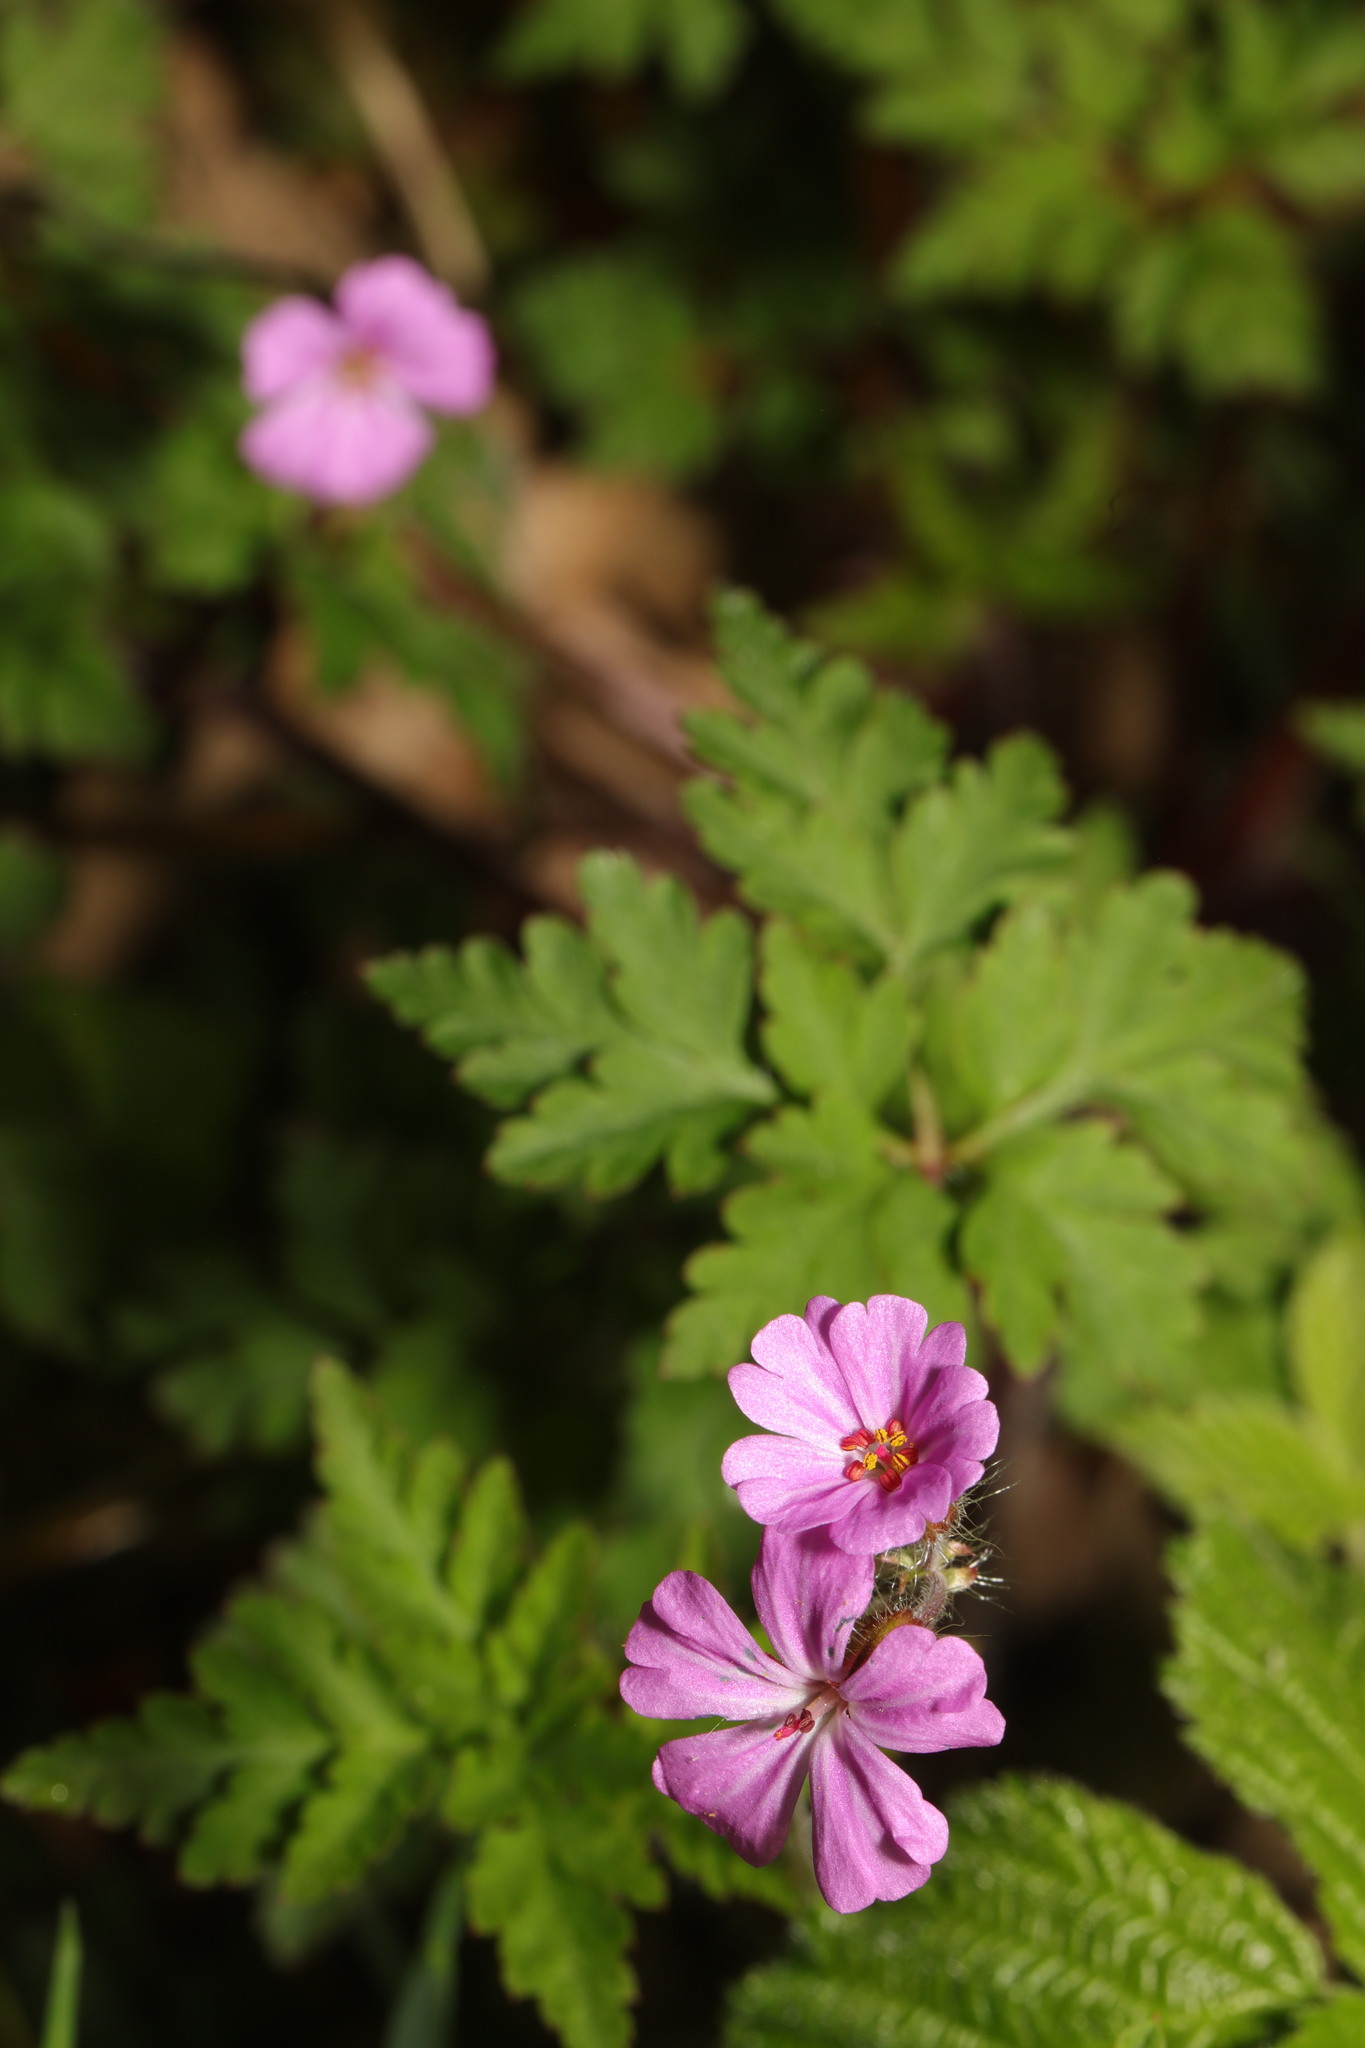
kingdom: Plantae
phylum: Tracheophyta
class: Magnoliopsida
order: Geraniales
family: Geraniaceae
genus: Geranium
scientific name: Geranium robertianum
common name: Herb-robert
